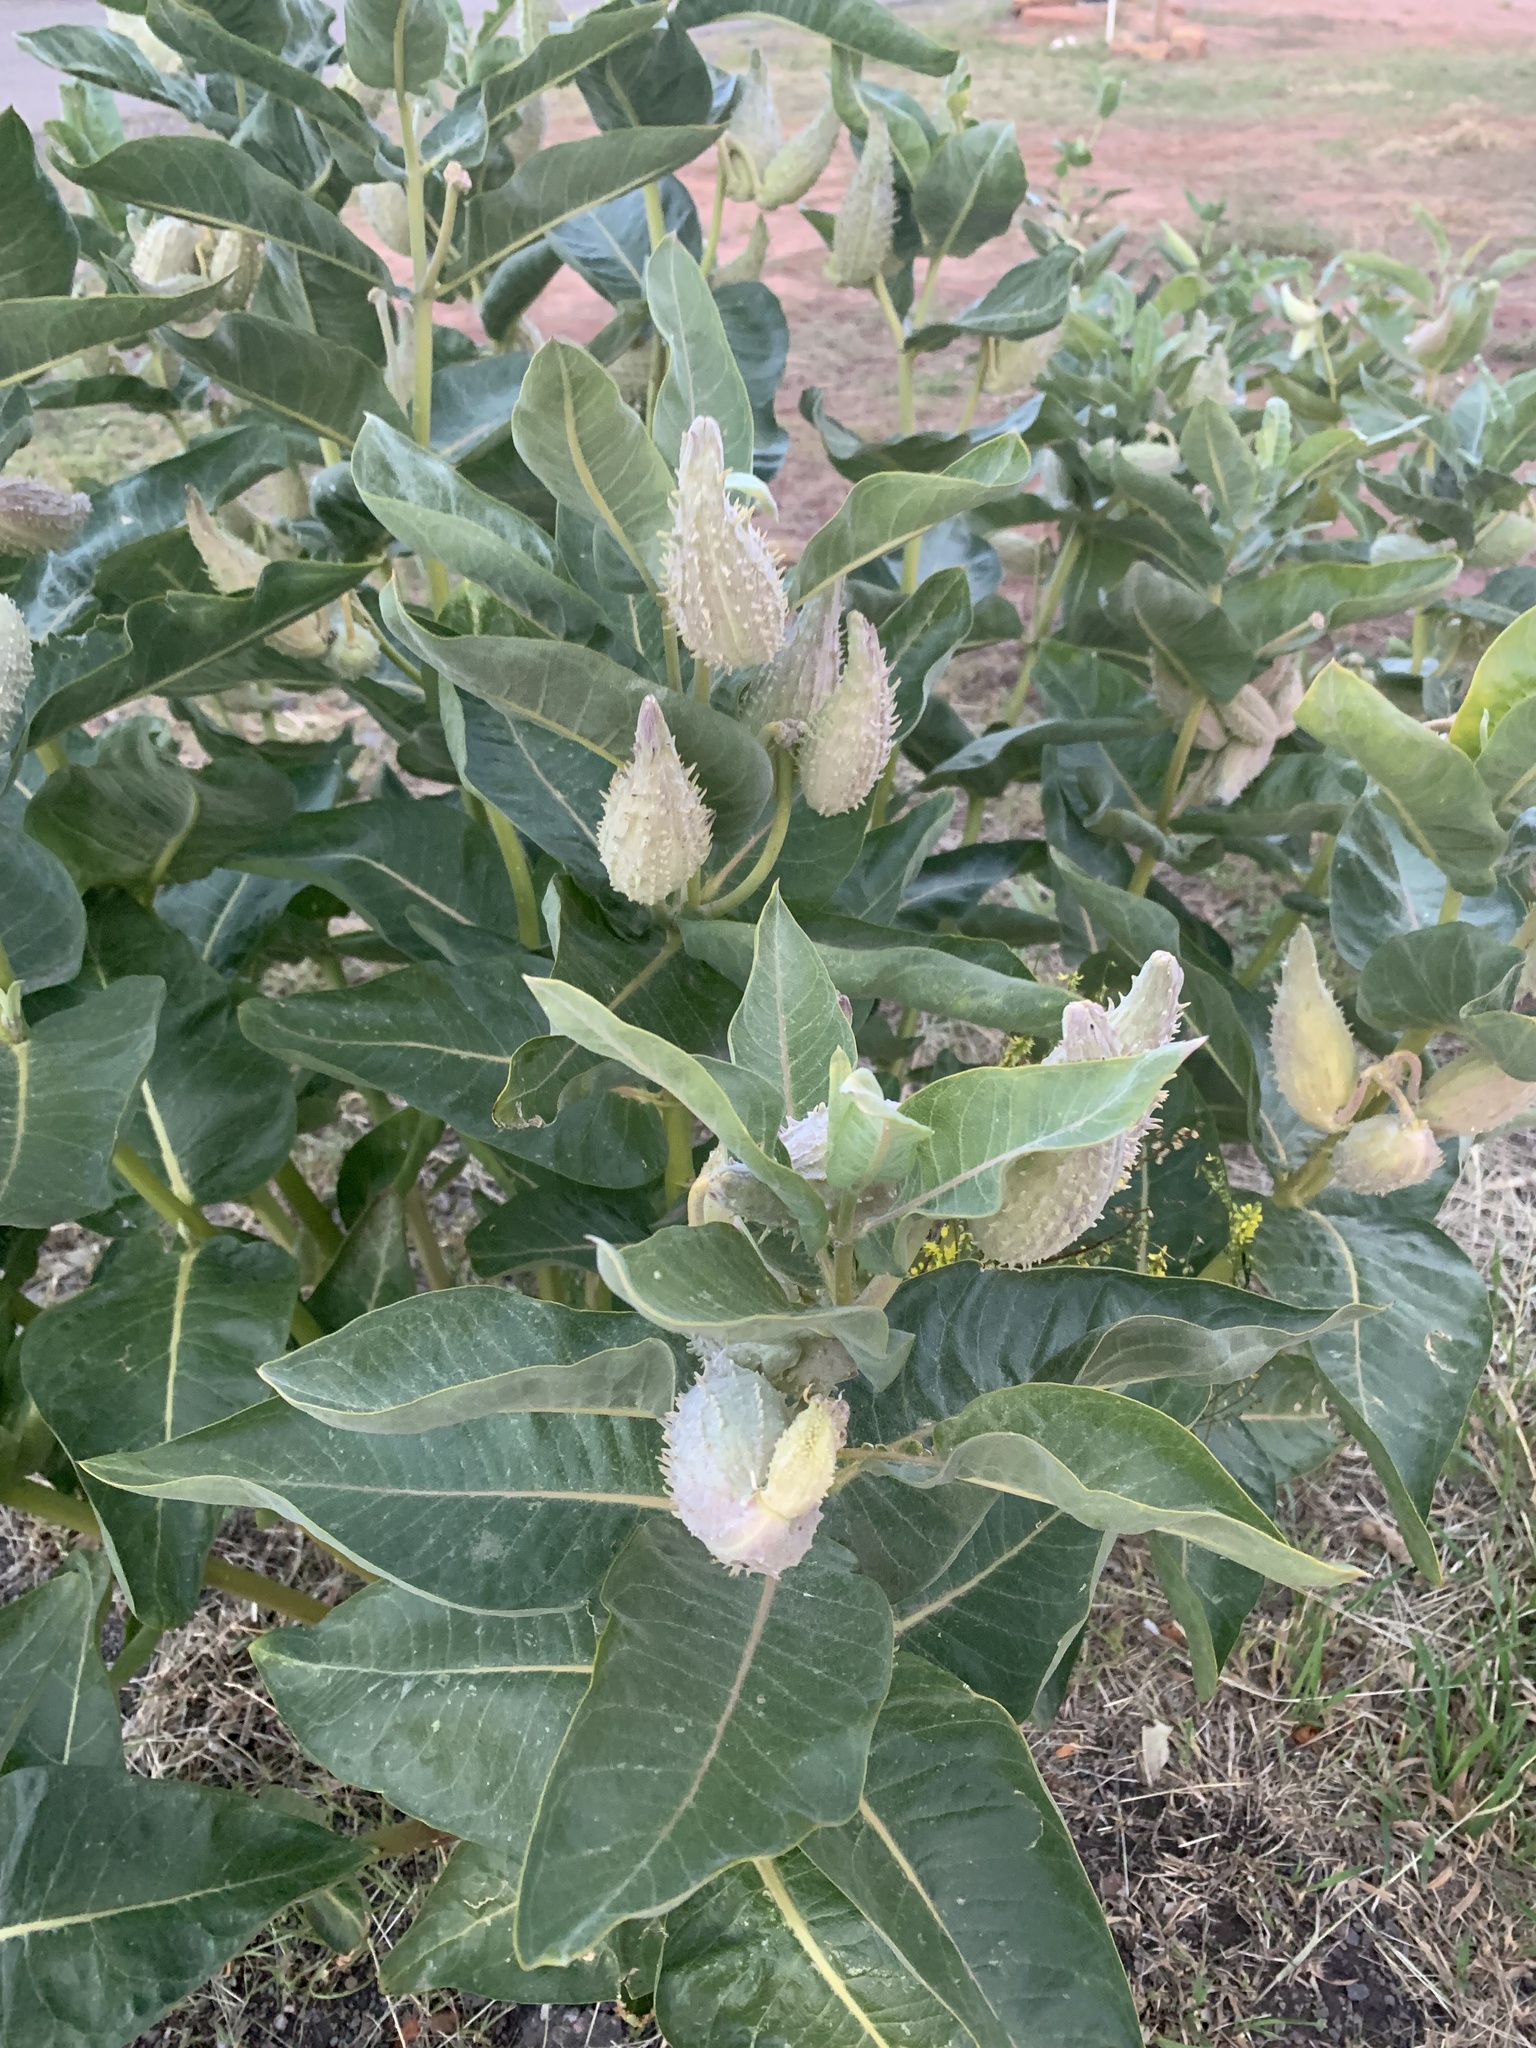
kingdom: Plantae
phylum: Tracheophyta
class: Magnoliopsida
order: Gentianales
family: Apocynaceae
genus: Asclepias
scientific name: Asclepias speciosa
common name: Showy milkweed
